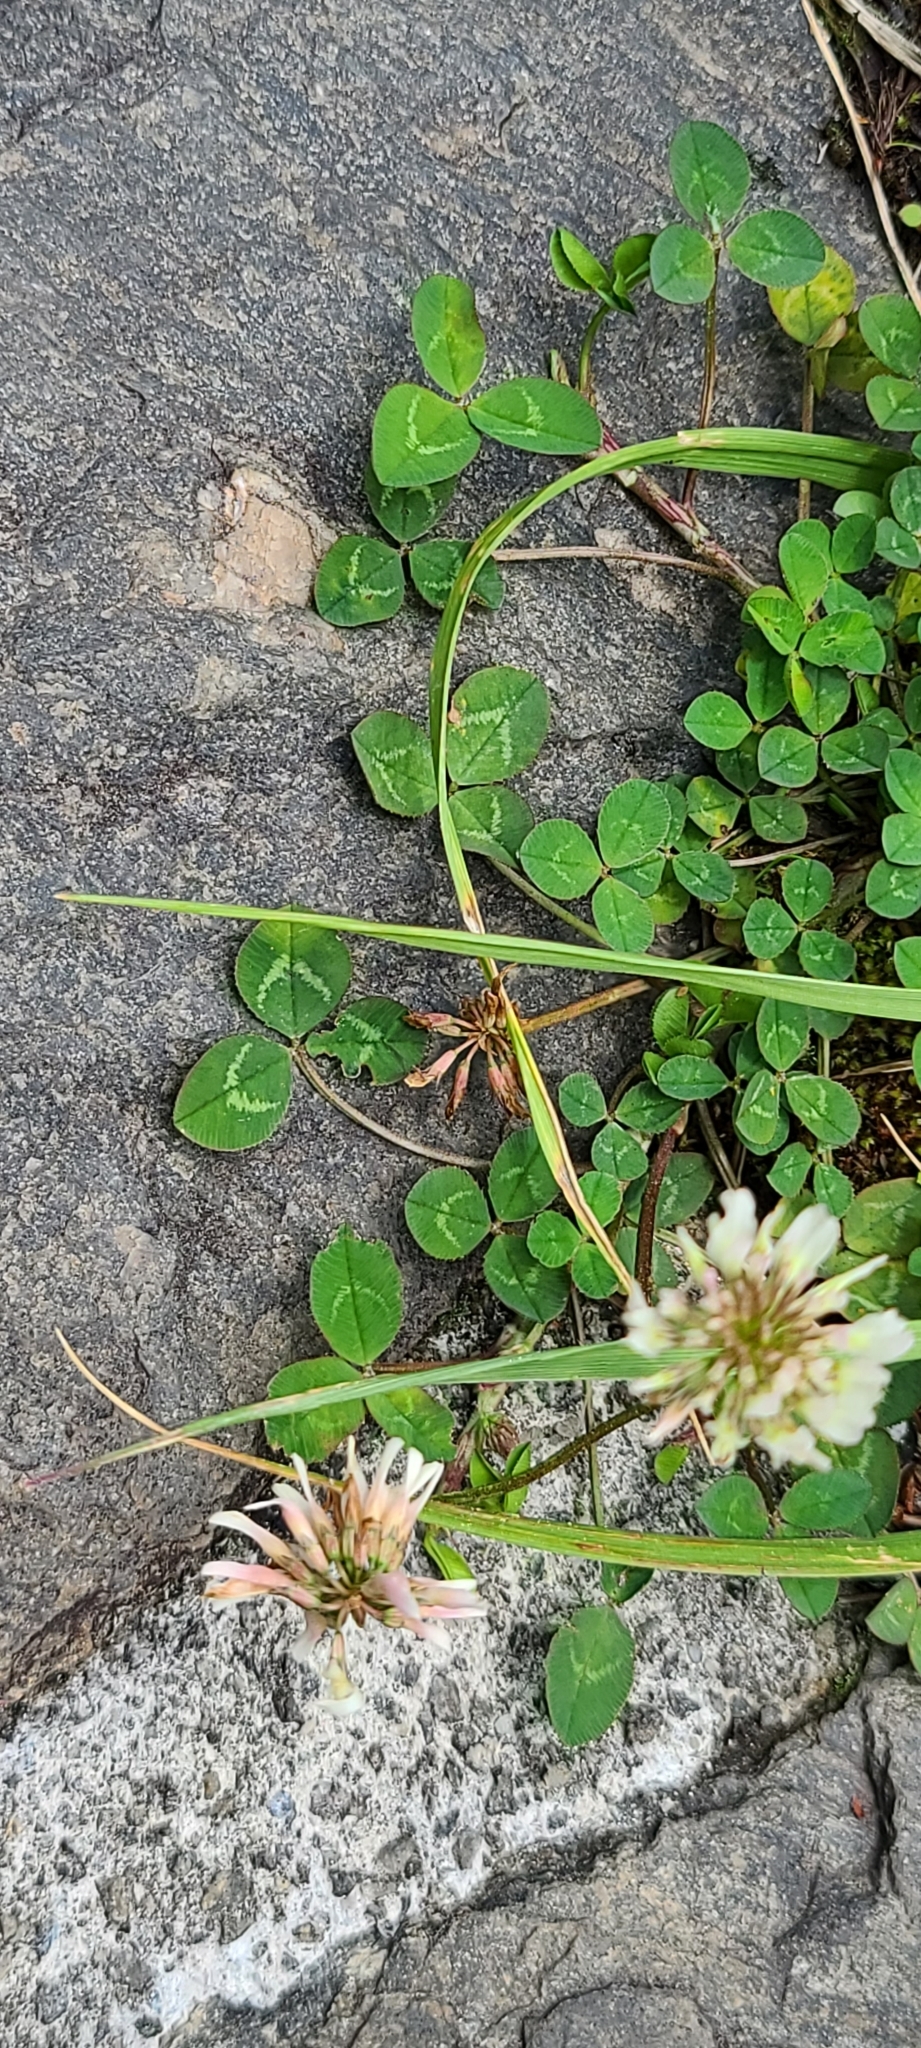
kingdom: Plantae
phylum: Tracheophyta
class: Magnoliopsida
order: Fabales
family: Fabaceae
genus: Trifolium
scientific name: Trifolium repens
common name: White clover
